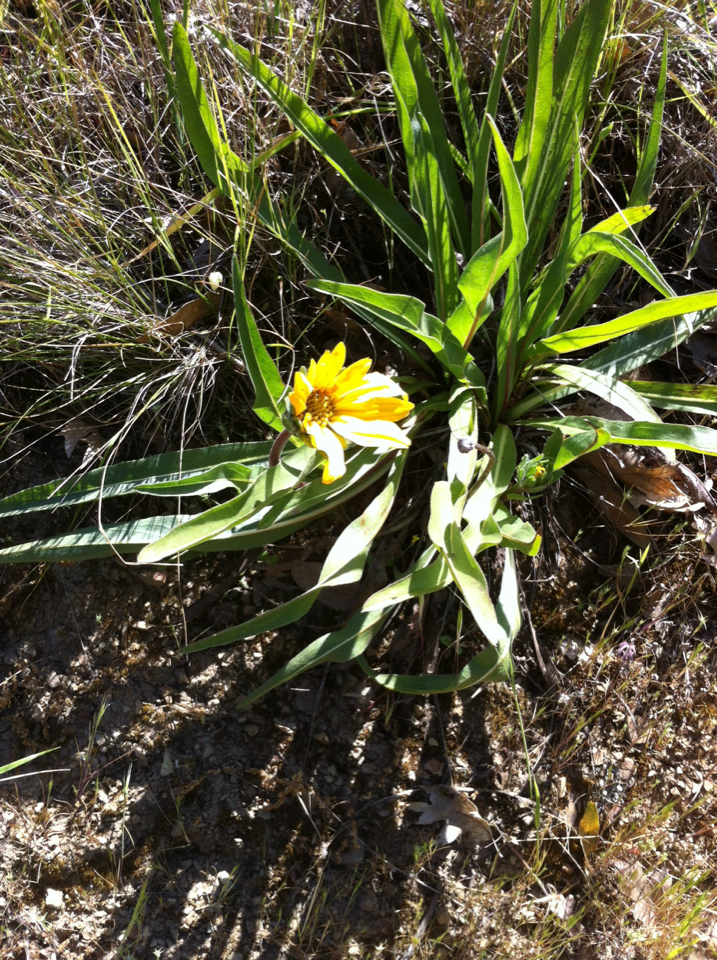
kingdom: Plantae
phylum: Tracheophyta
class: Magnoliopsida
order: Asterales
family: Asteraceae
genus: Wyethia
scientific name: Wyethia angustifolia
